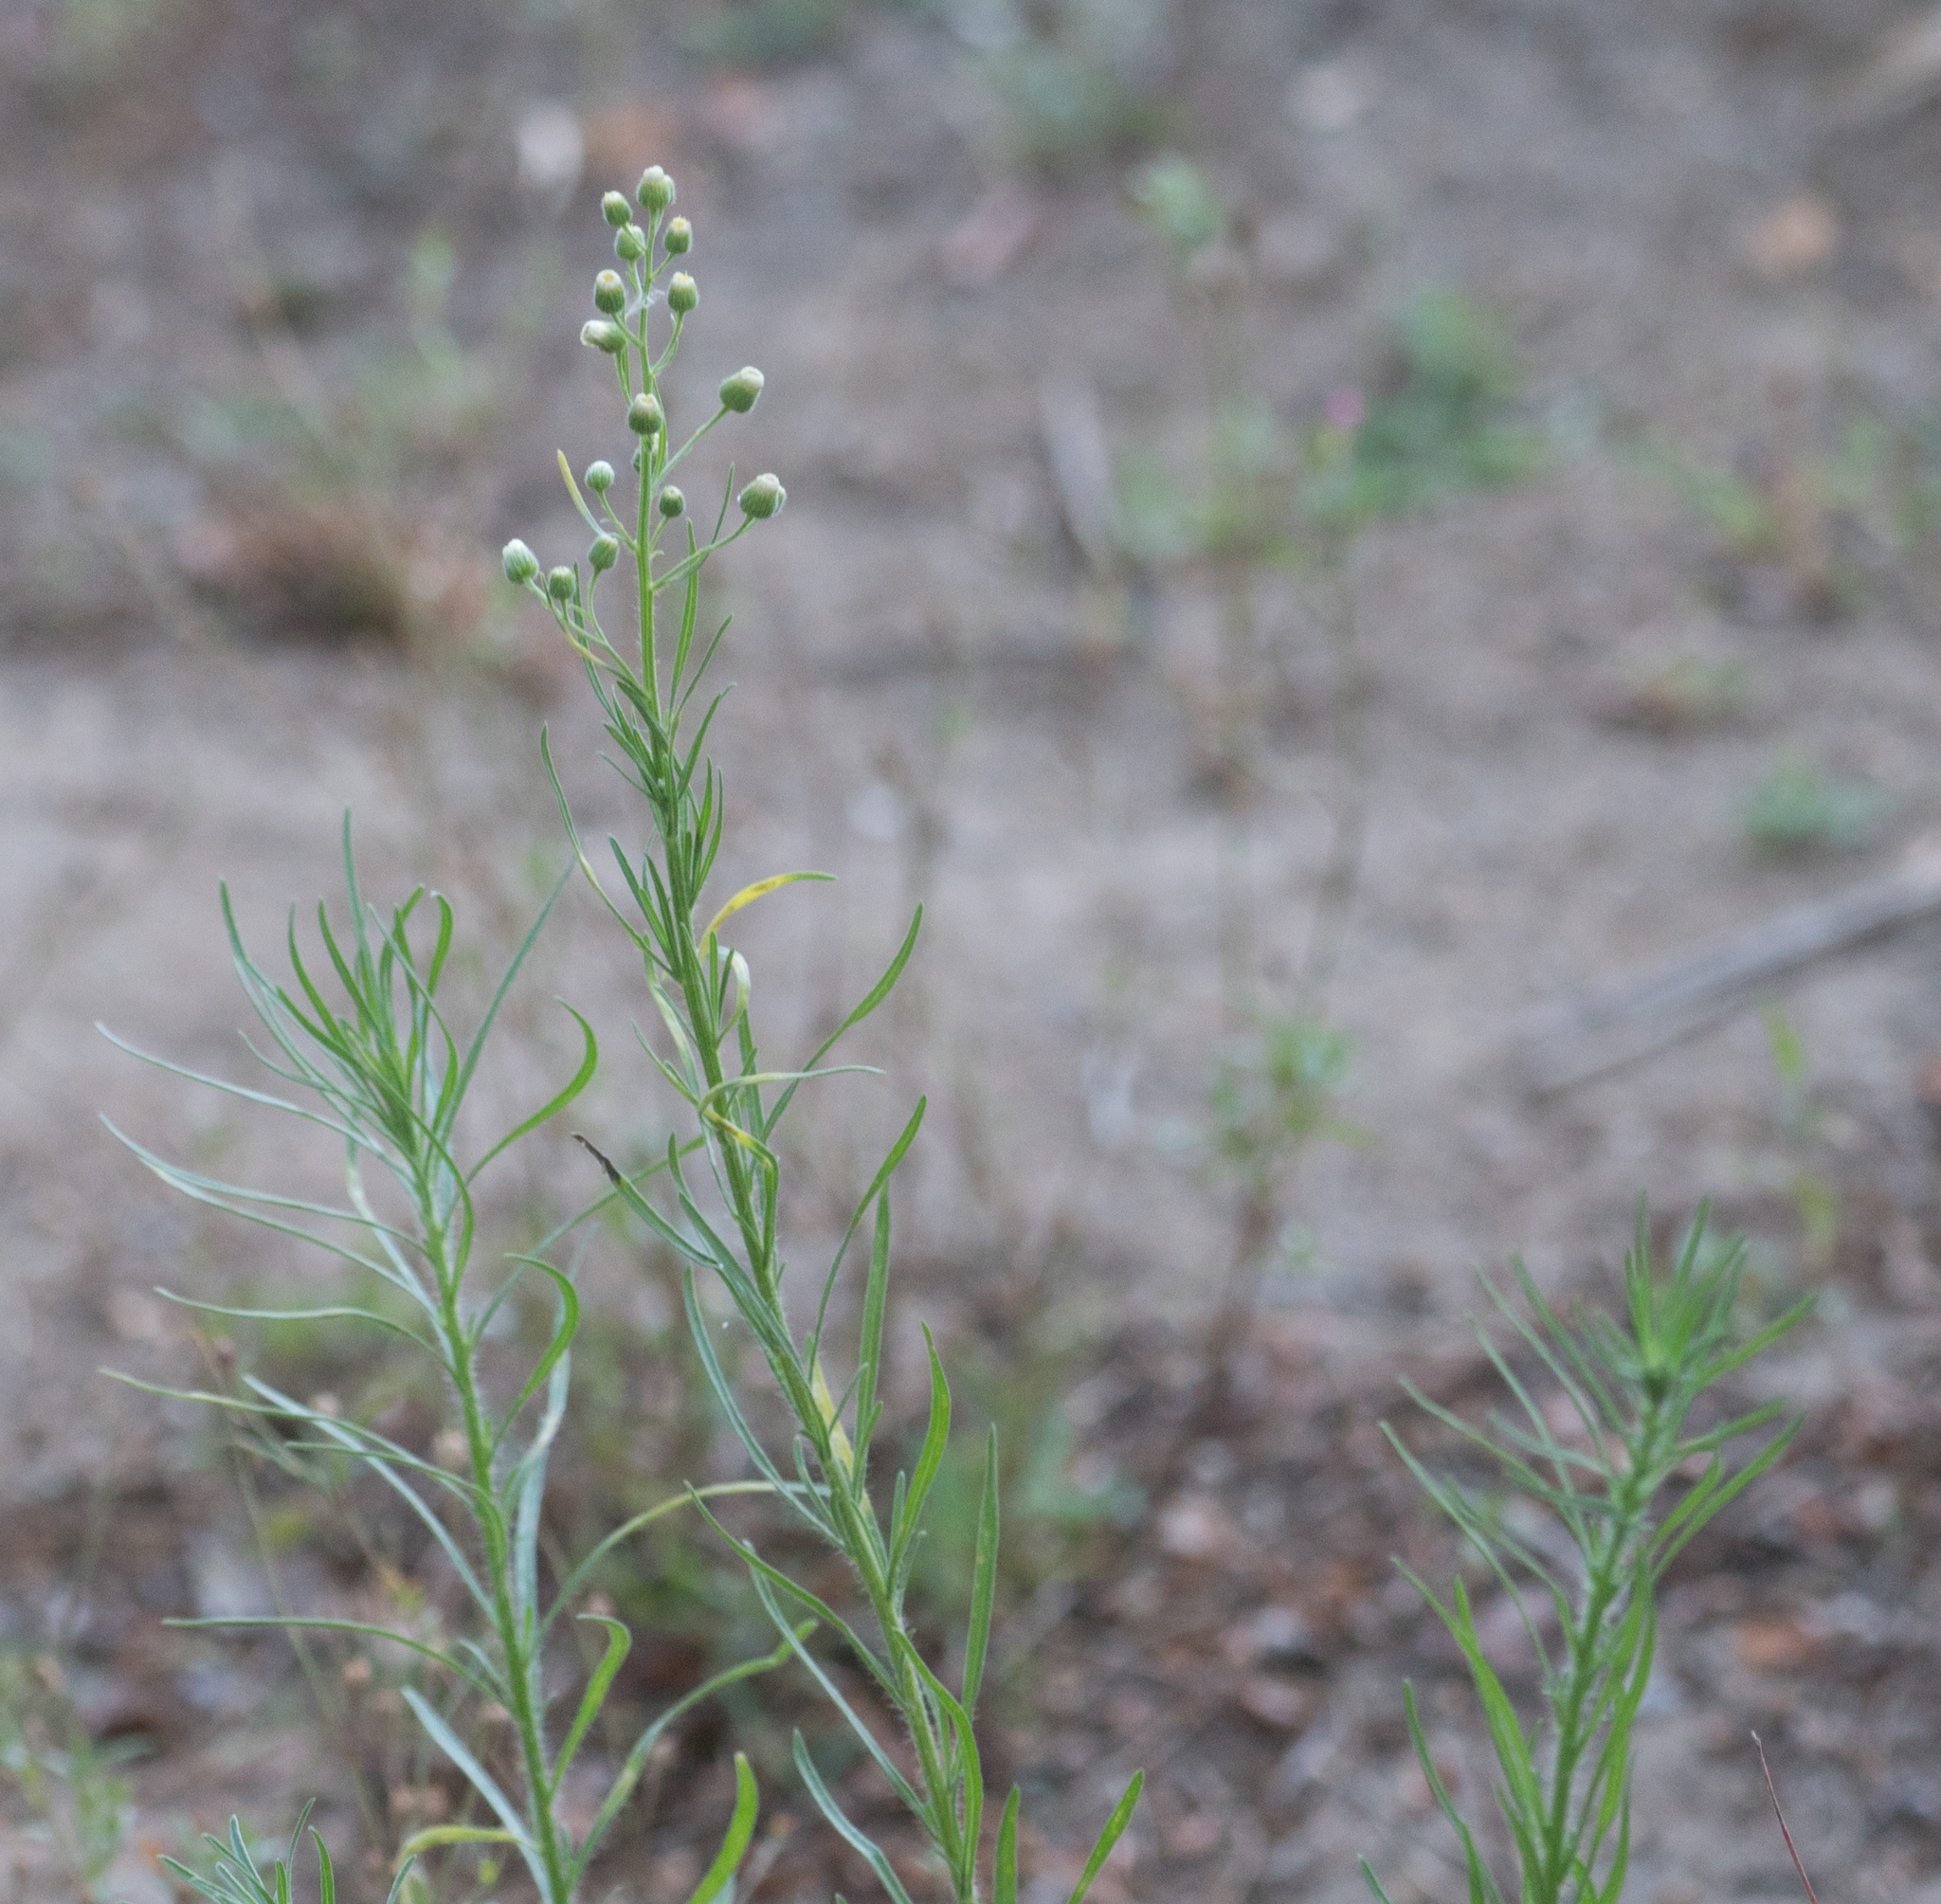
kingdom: Plantae
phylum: Tracheophyta
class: Magnoliopsida
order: Asterales
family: Asteraceae
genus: Erigeron
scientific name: Erigeron bonariensis
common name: Argentine fleabane
